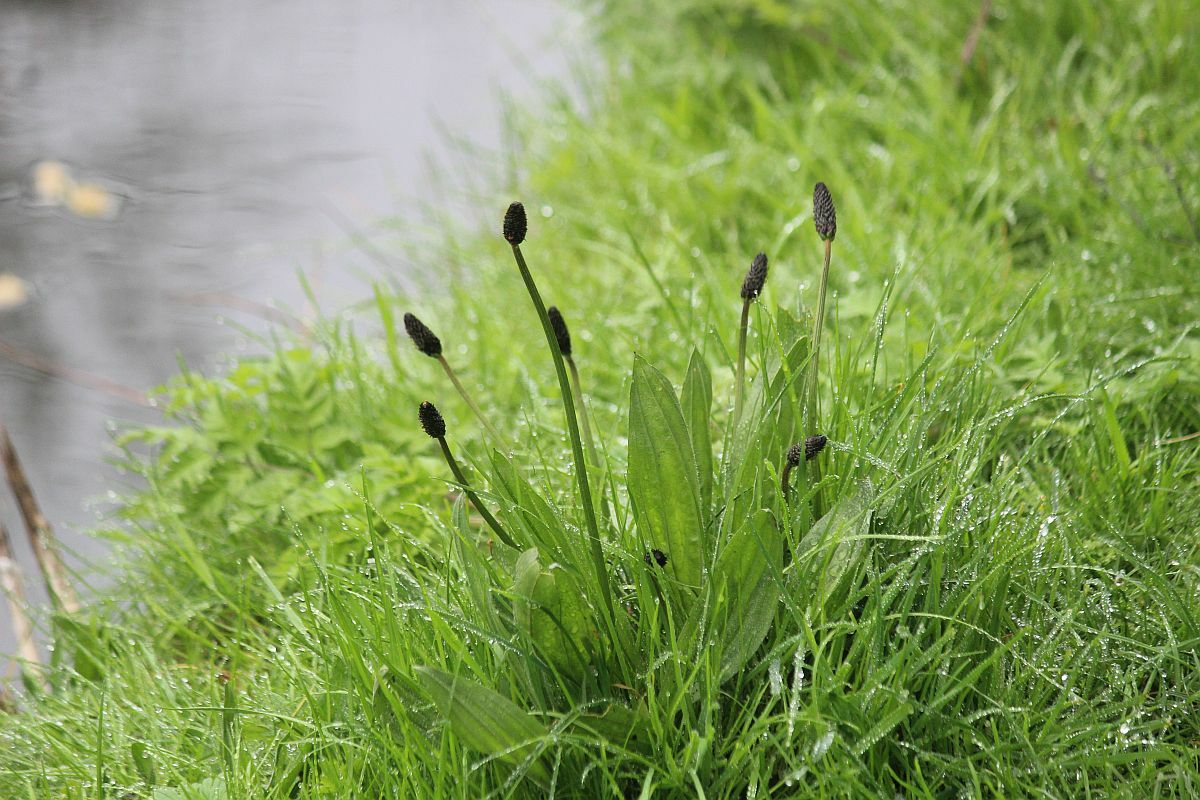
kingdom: Plantae
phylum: Tracheophyta
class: Magnoliopsida
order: Lamiales
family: Plantaginaceae
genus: Plantago
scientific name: Plantago lanceolata
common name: Ribwort plantain
